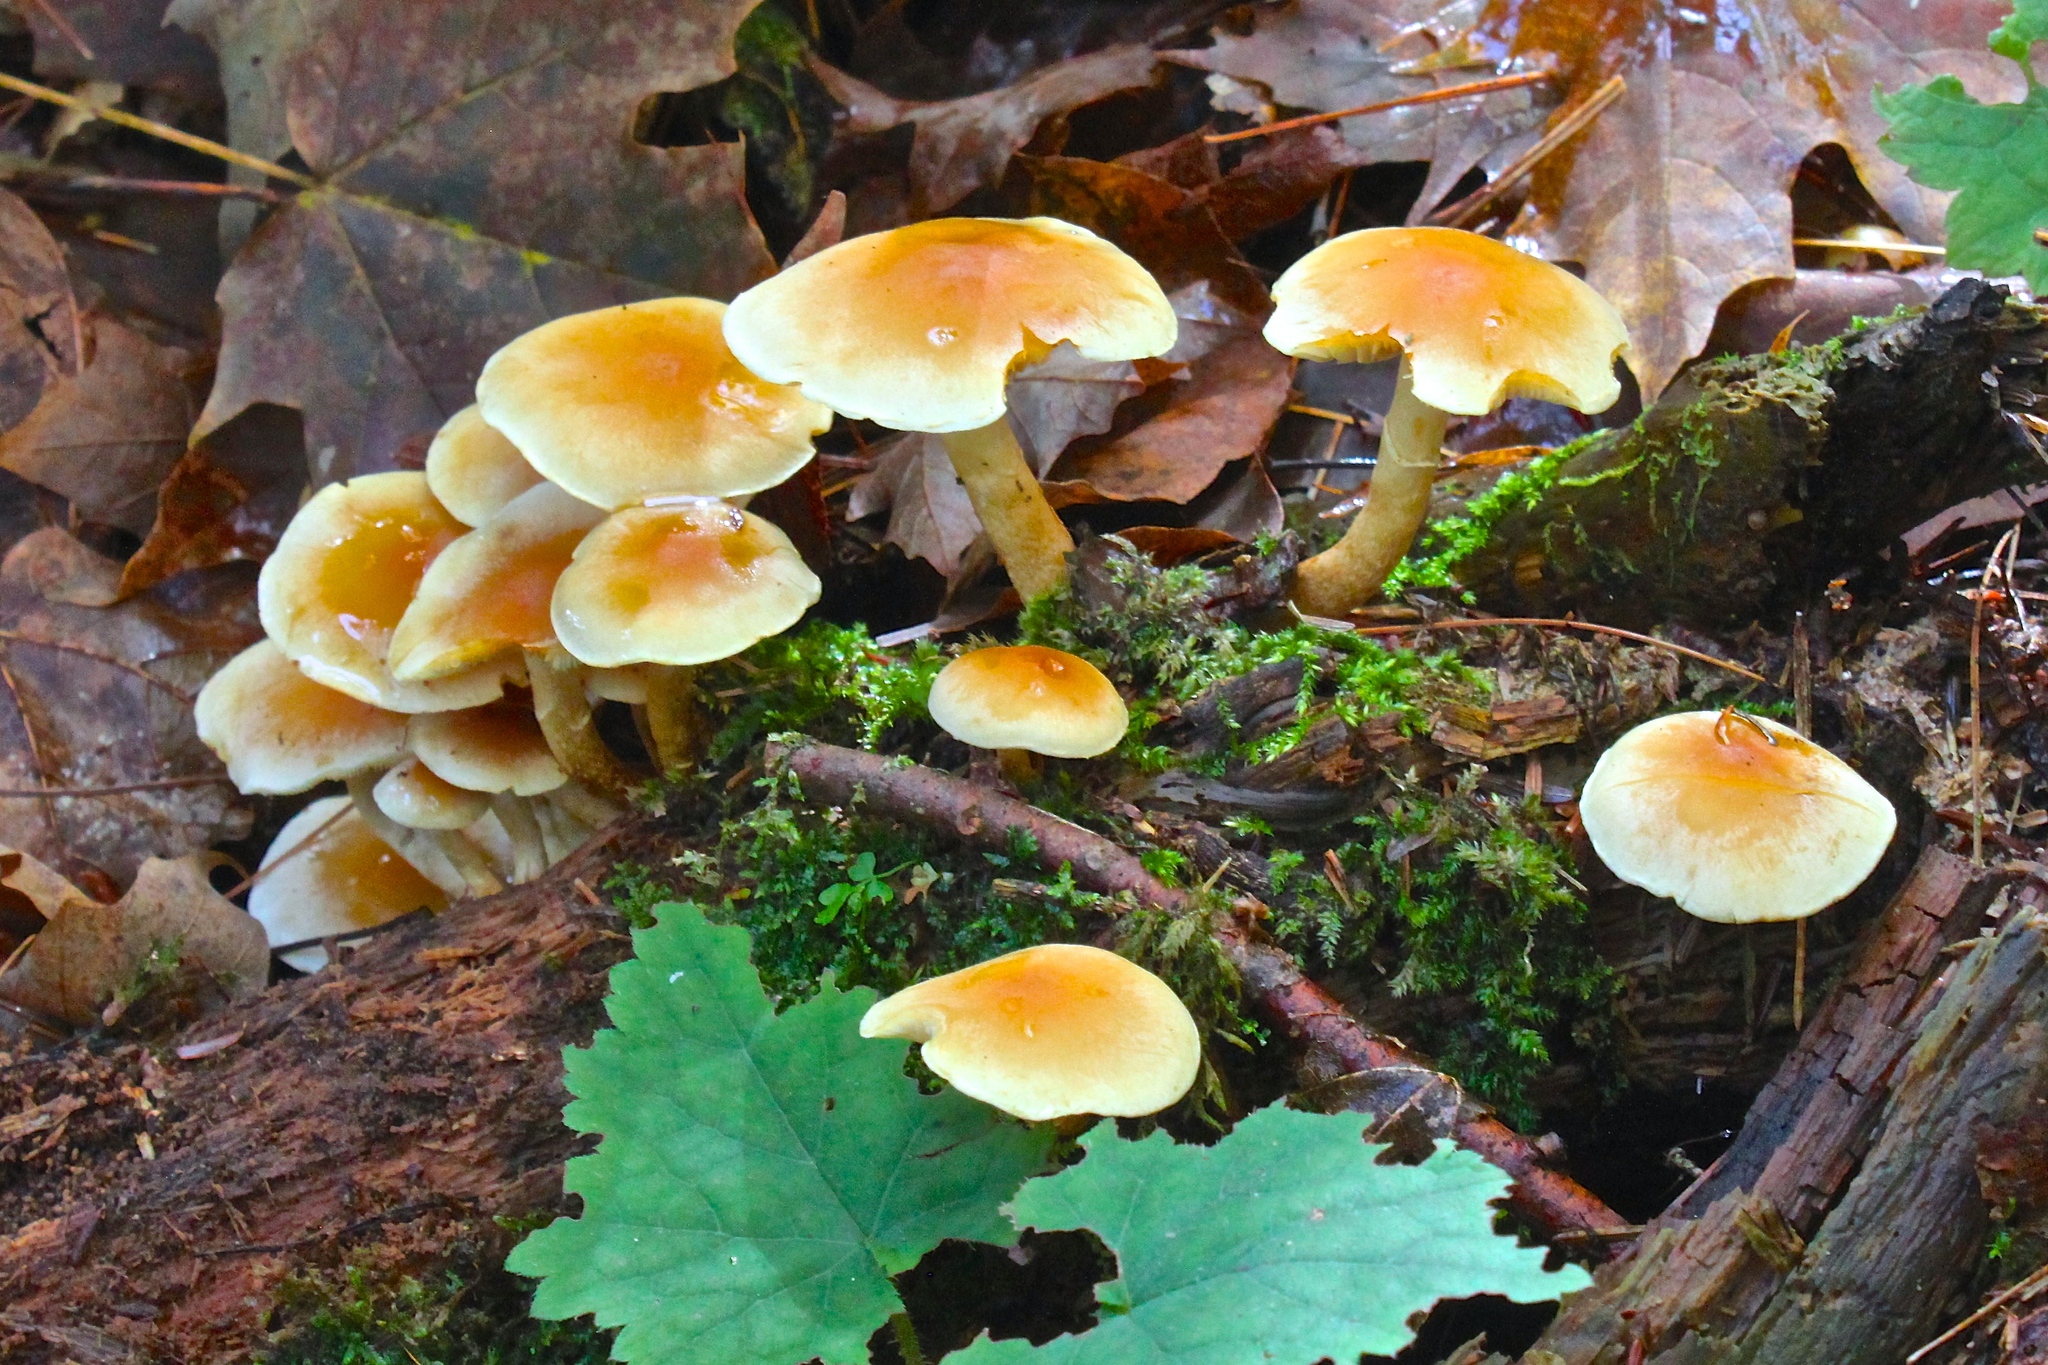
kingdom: Fungi
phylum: Basidiomycota
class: Agaricomycetes
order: Agaricales
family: Strophariaceae
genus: Hypholoma
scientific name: Hypholoma capnoides
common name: Conifer tuft
